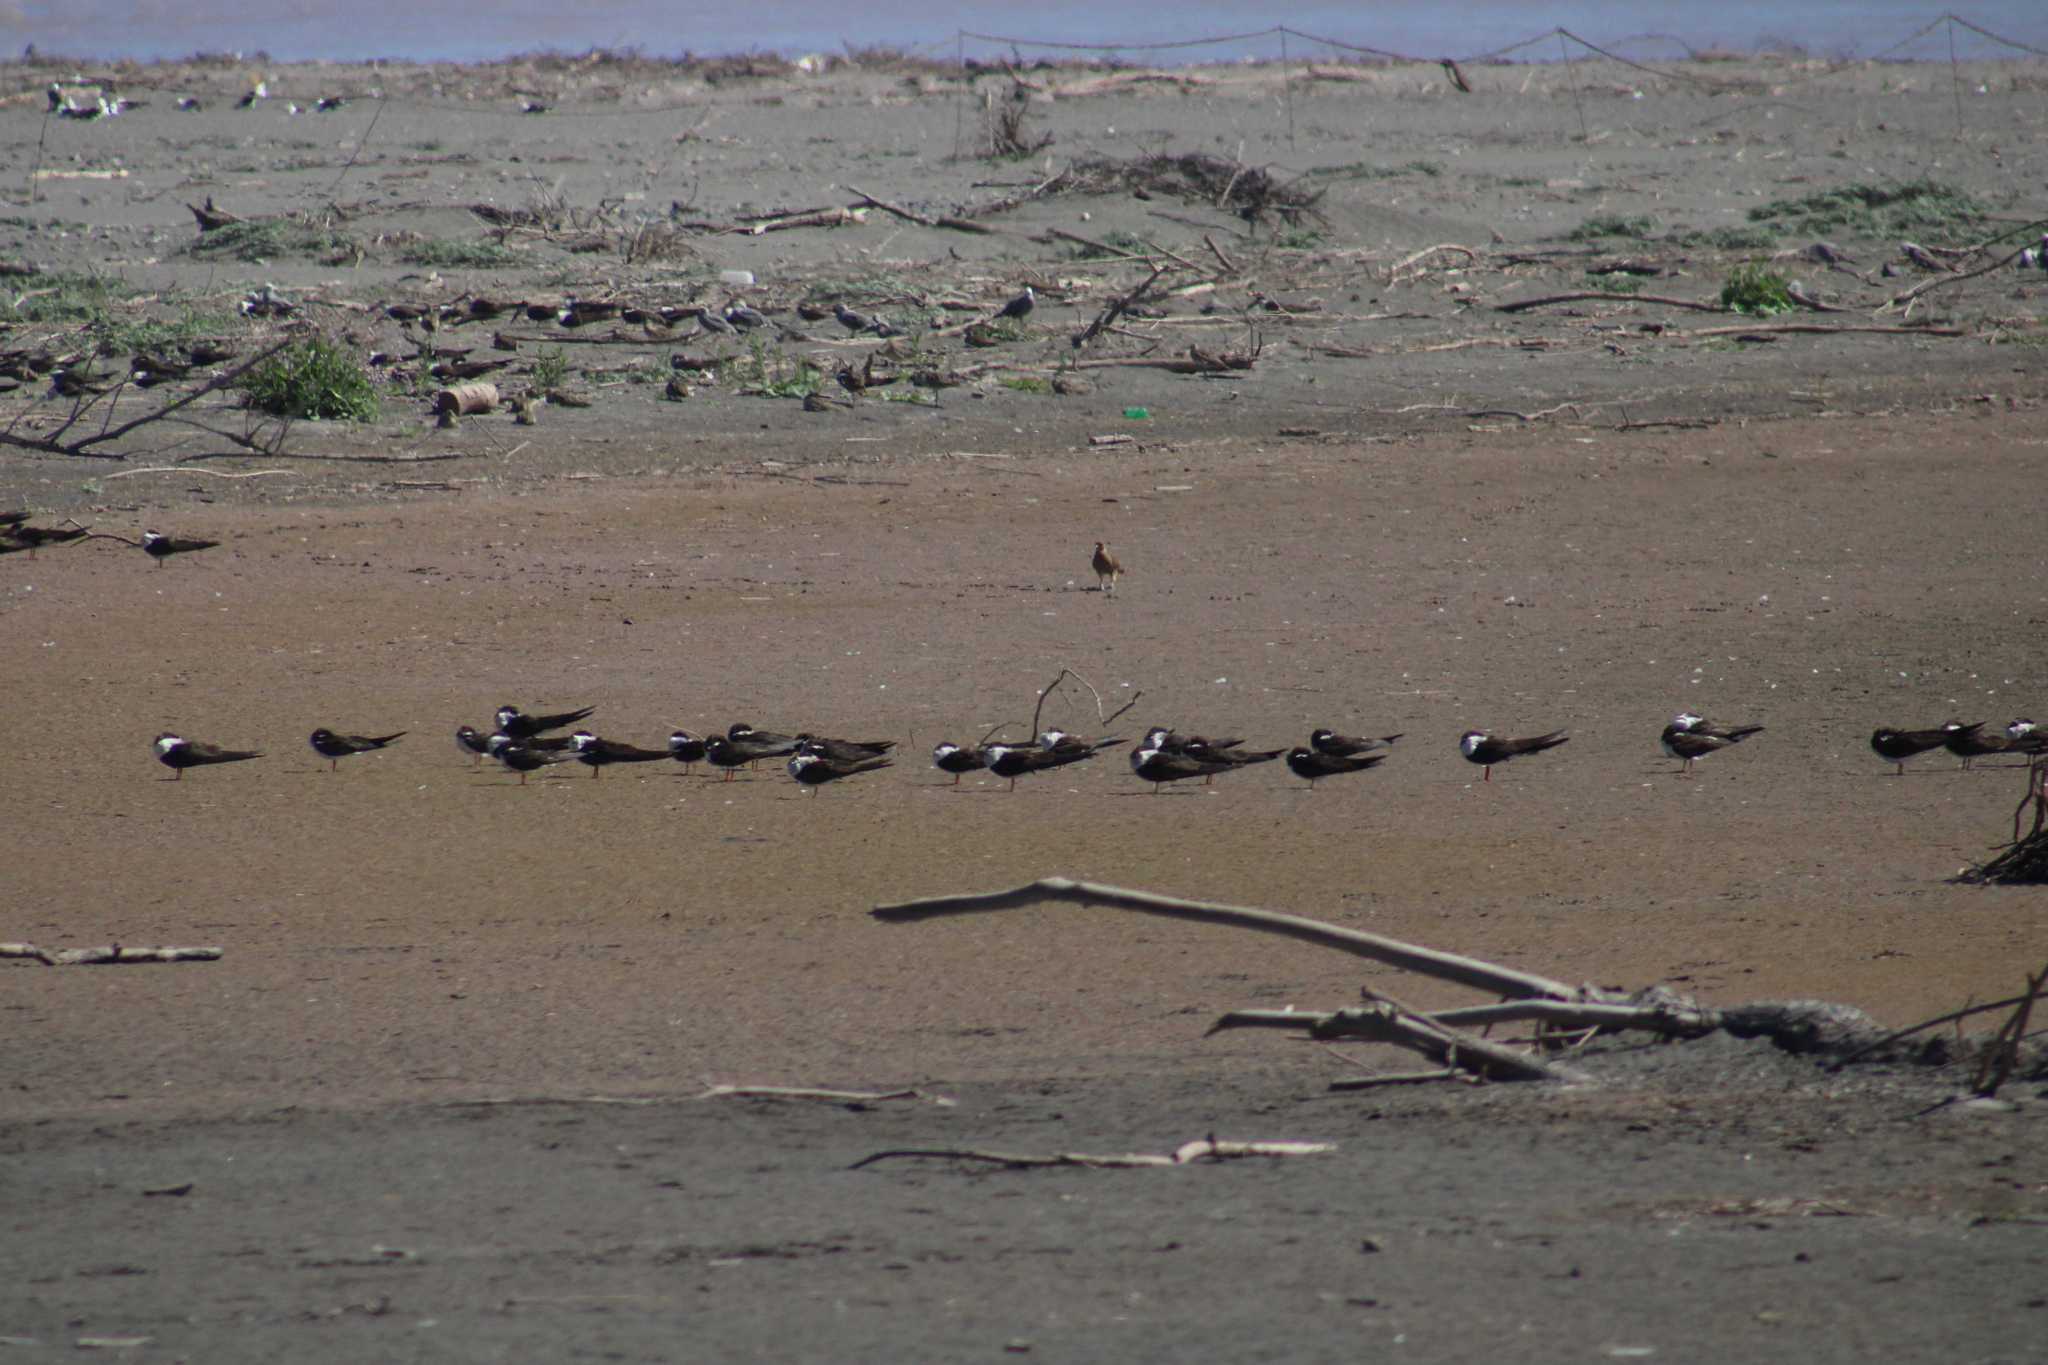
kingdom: Animalia
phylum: Chordata
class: Aves
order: Charadriiformes
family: Laridae
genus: Rynchops
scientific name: Rynchops niger
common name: Black skimmer
